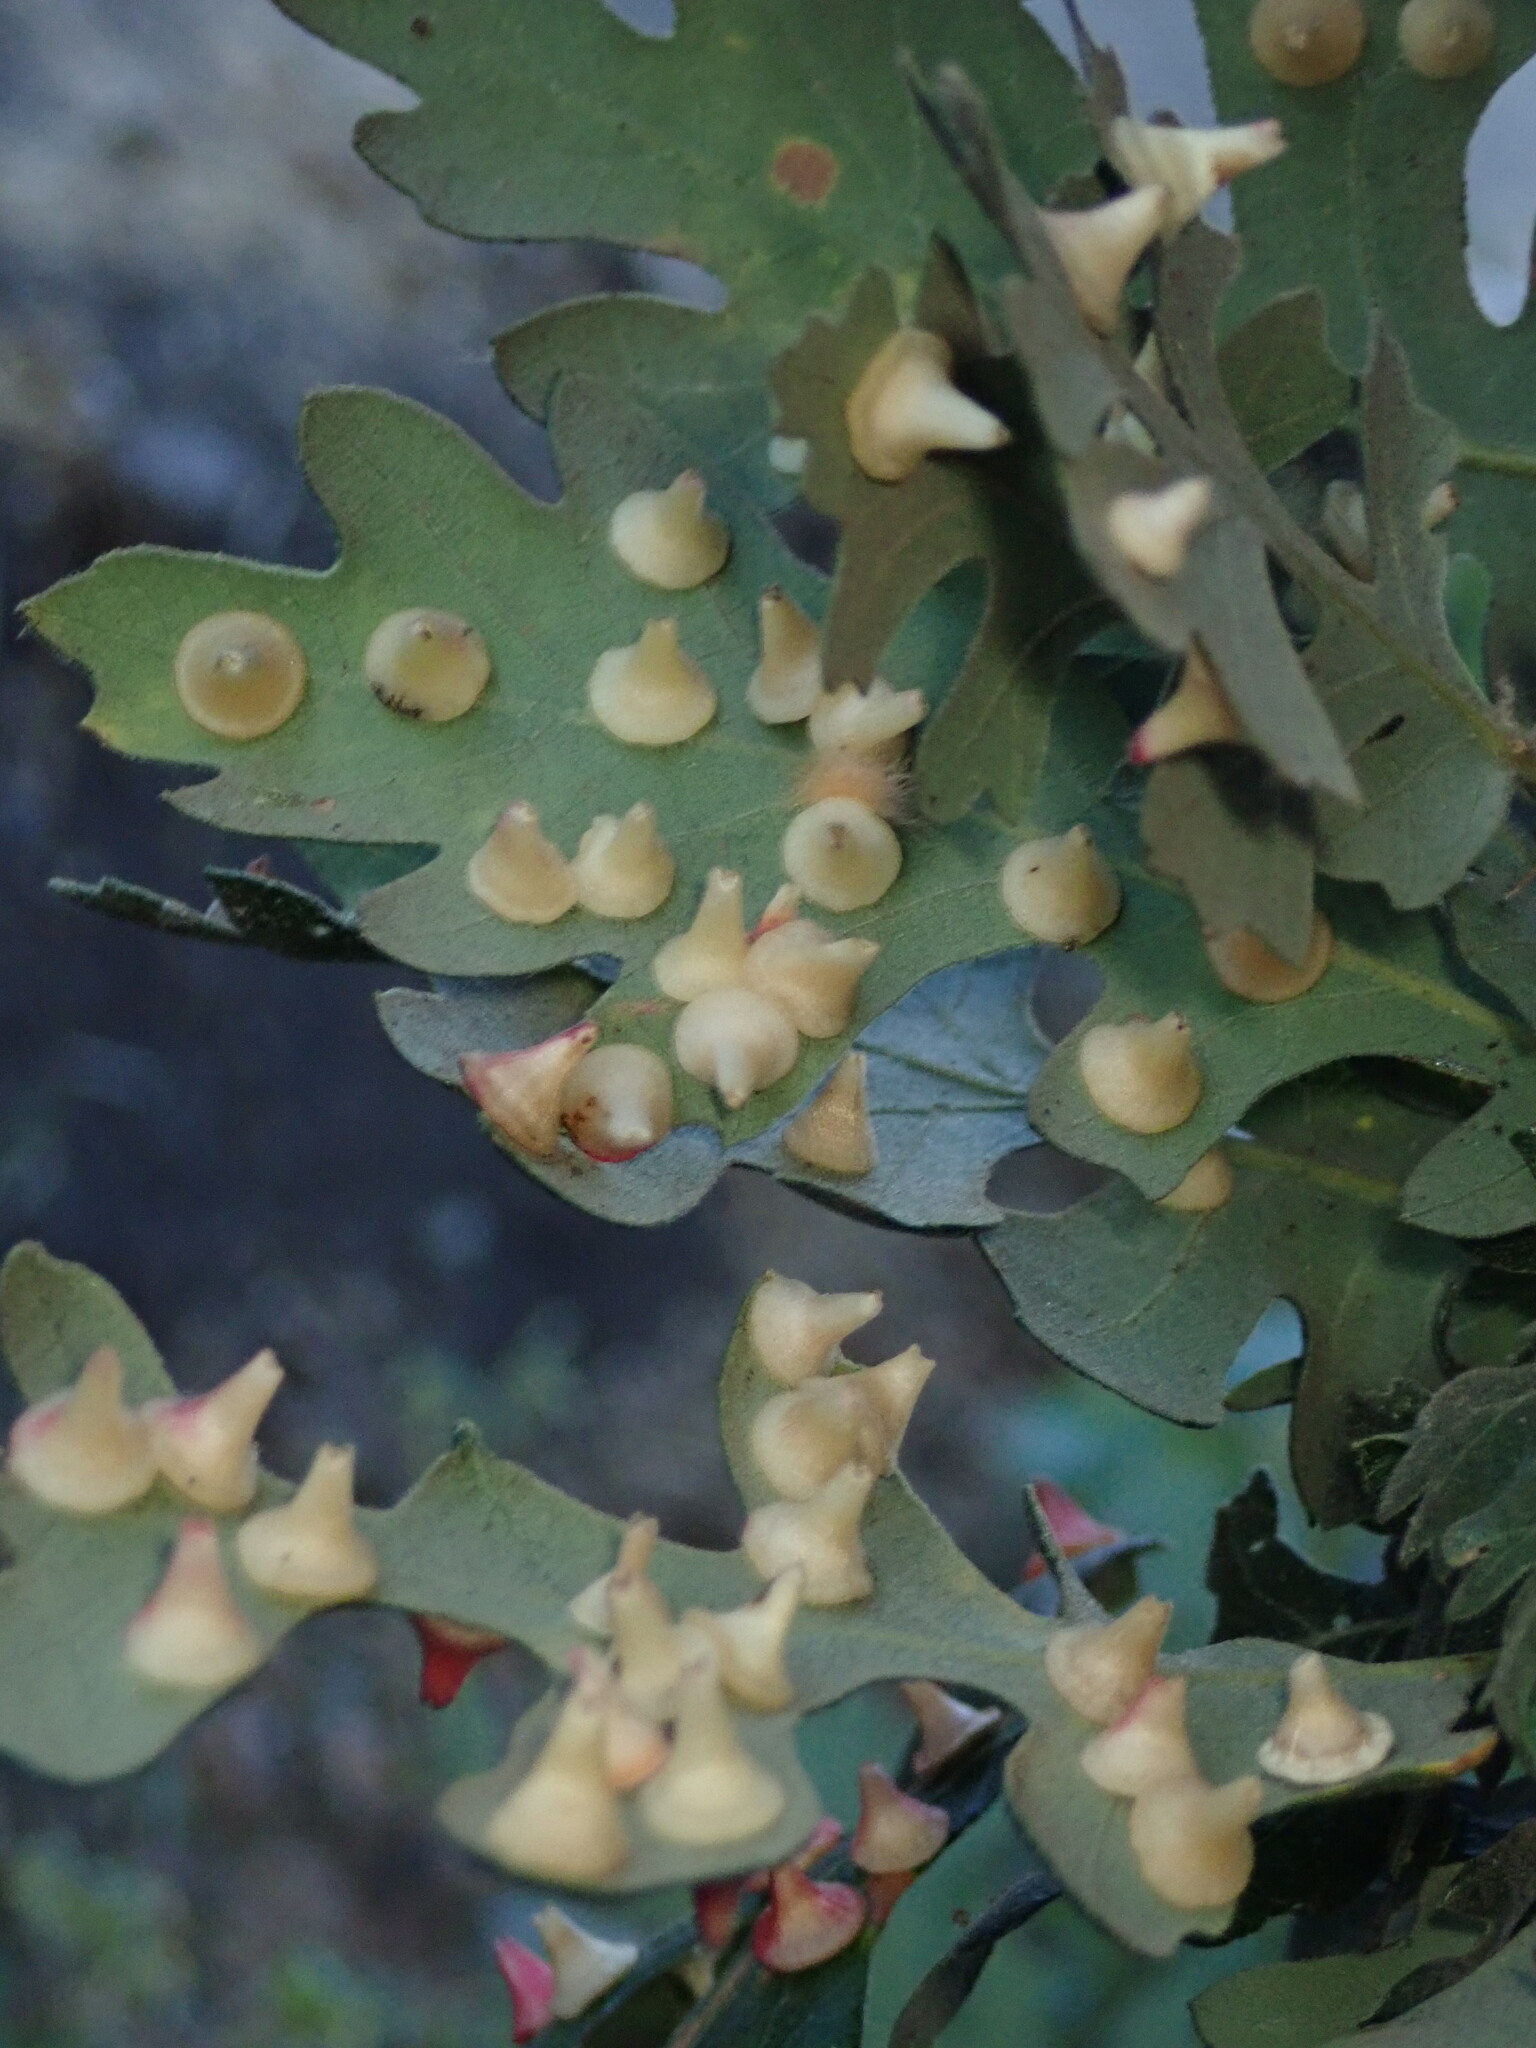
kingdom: Animalia
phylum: Arthropoda
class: Insecta
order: Hymenoptera
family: Cynipidae
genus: Andricus
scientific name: Andricus
